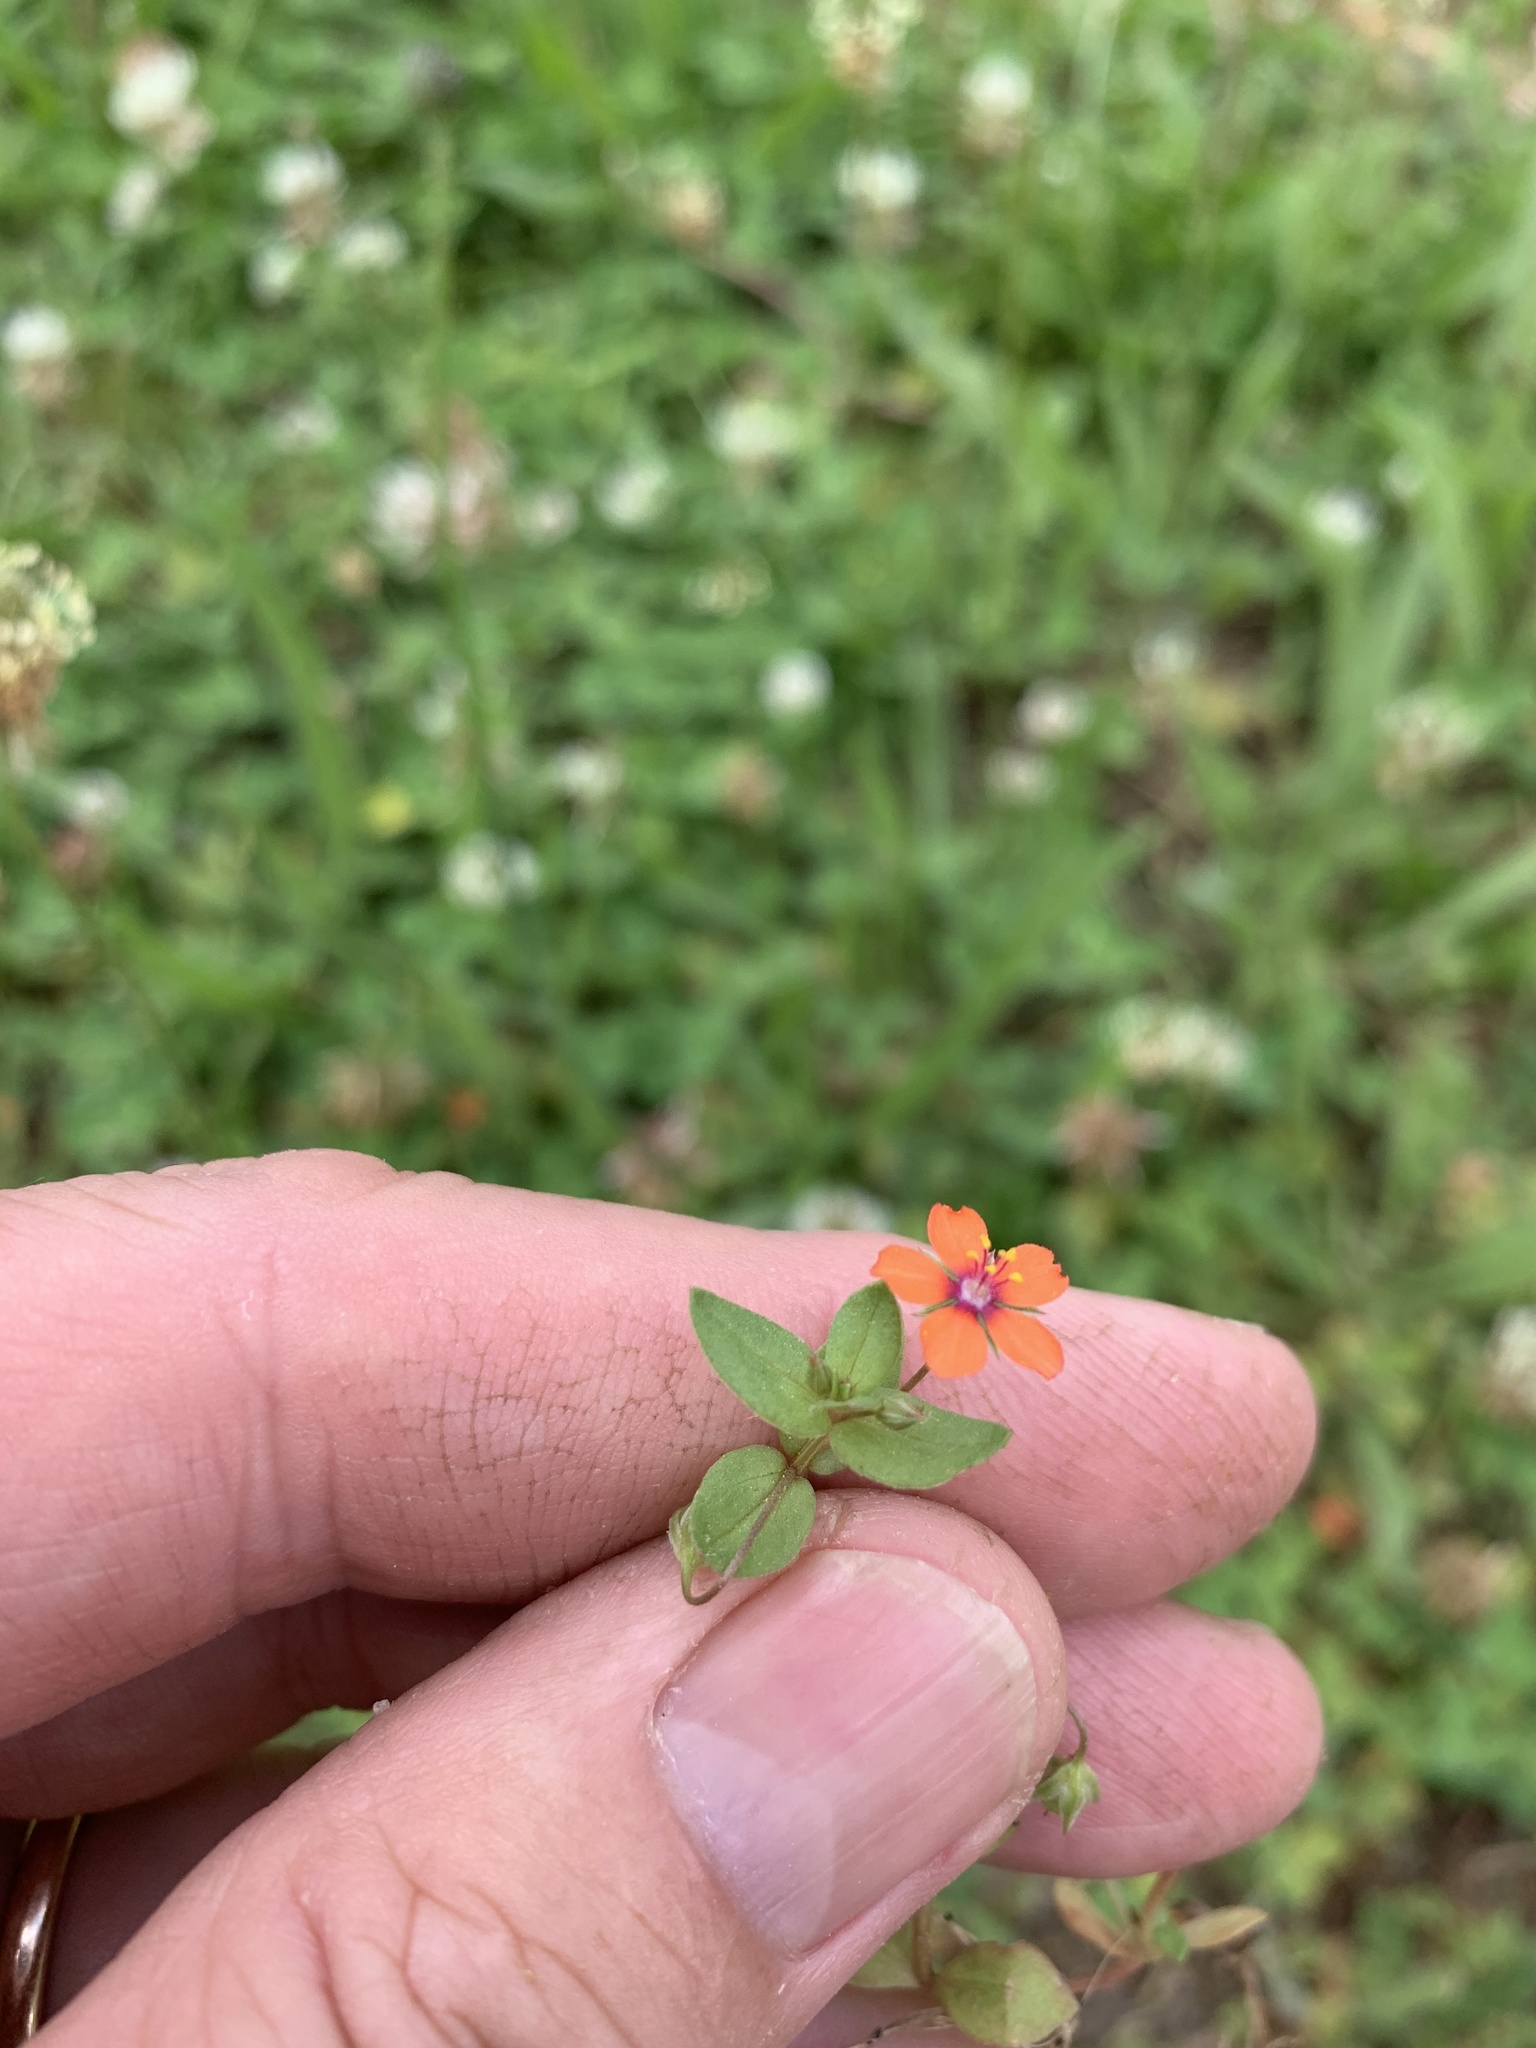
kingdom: Plantae
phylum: Tracheophyta
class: Magnoliopsida
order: Ericales
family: Primulaceae
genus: Lysimachia
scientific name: Lysimachia arvensis
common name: Scarlet pimpernel
